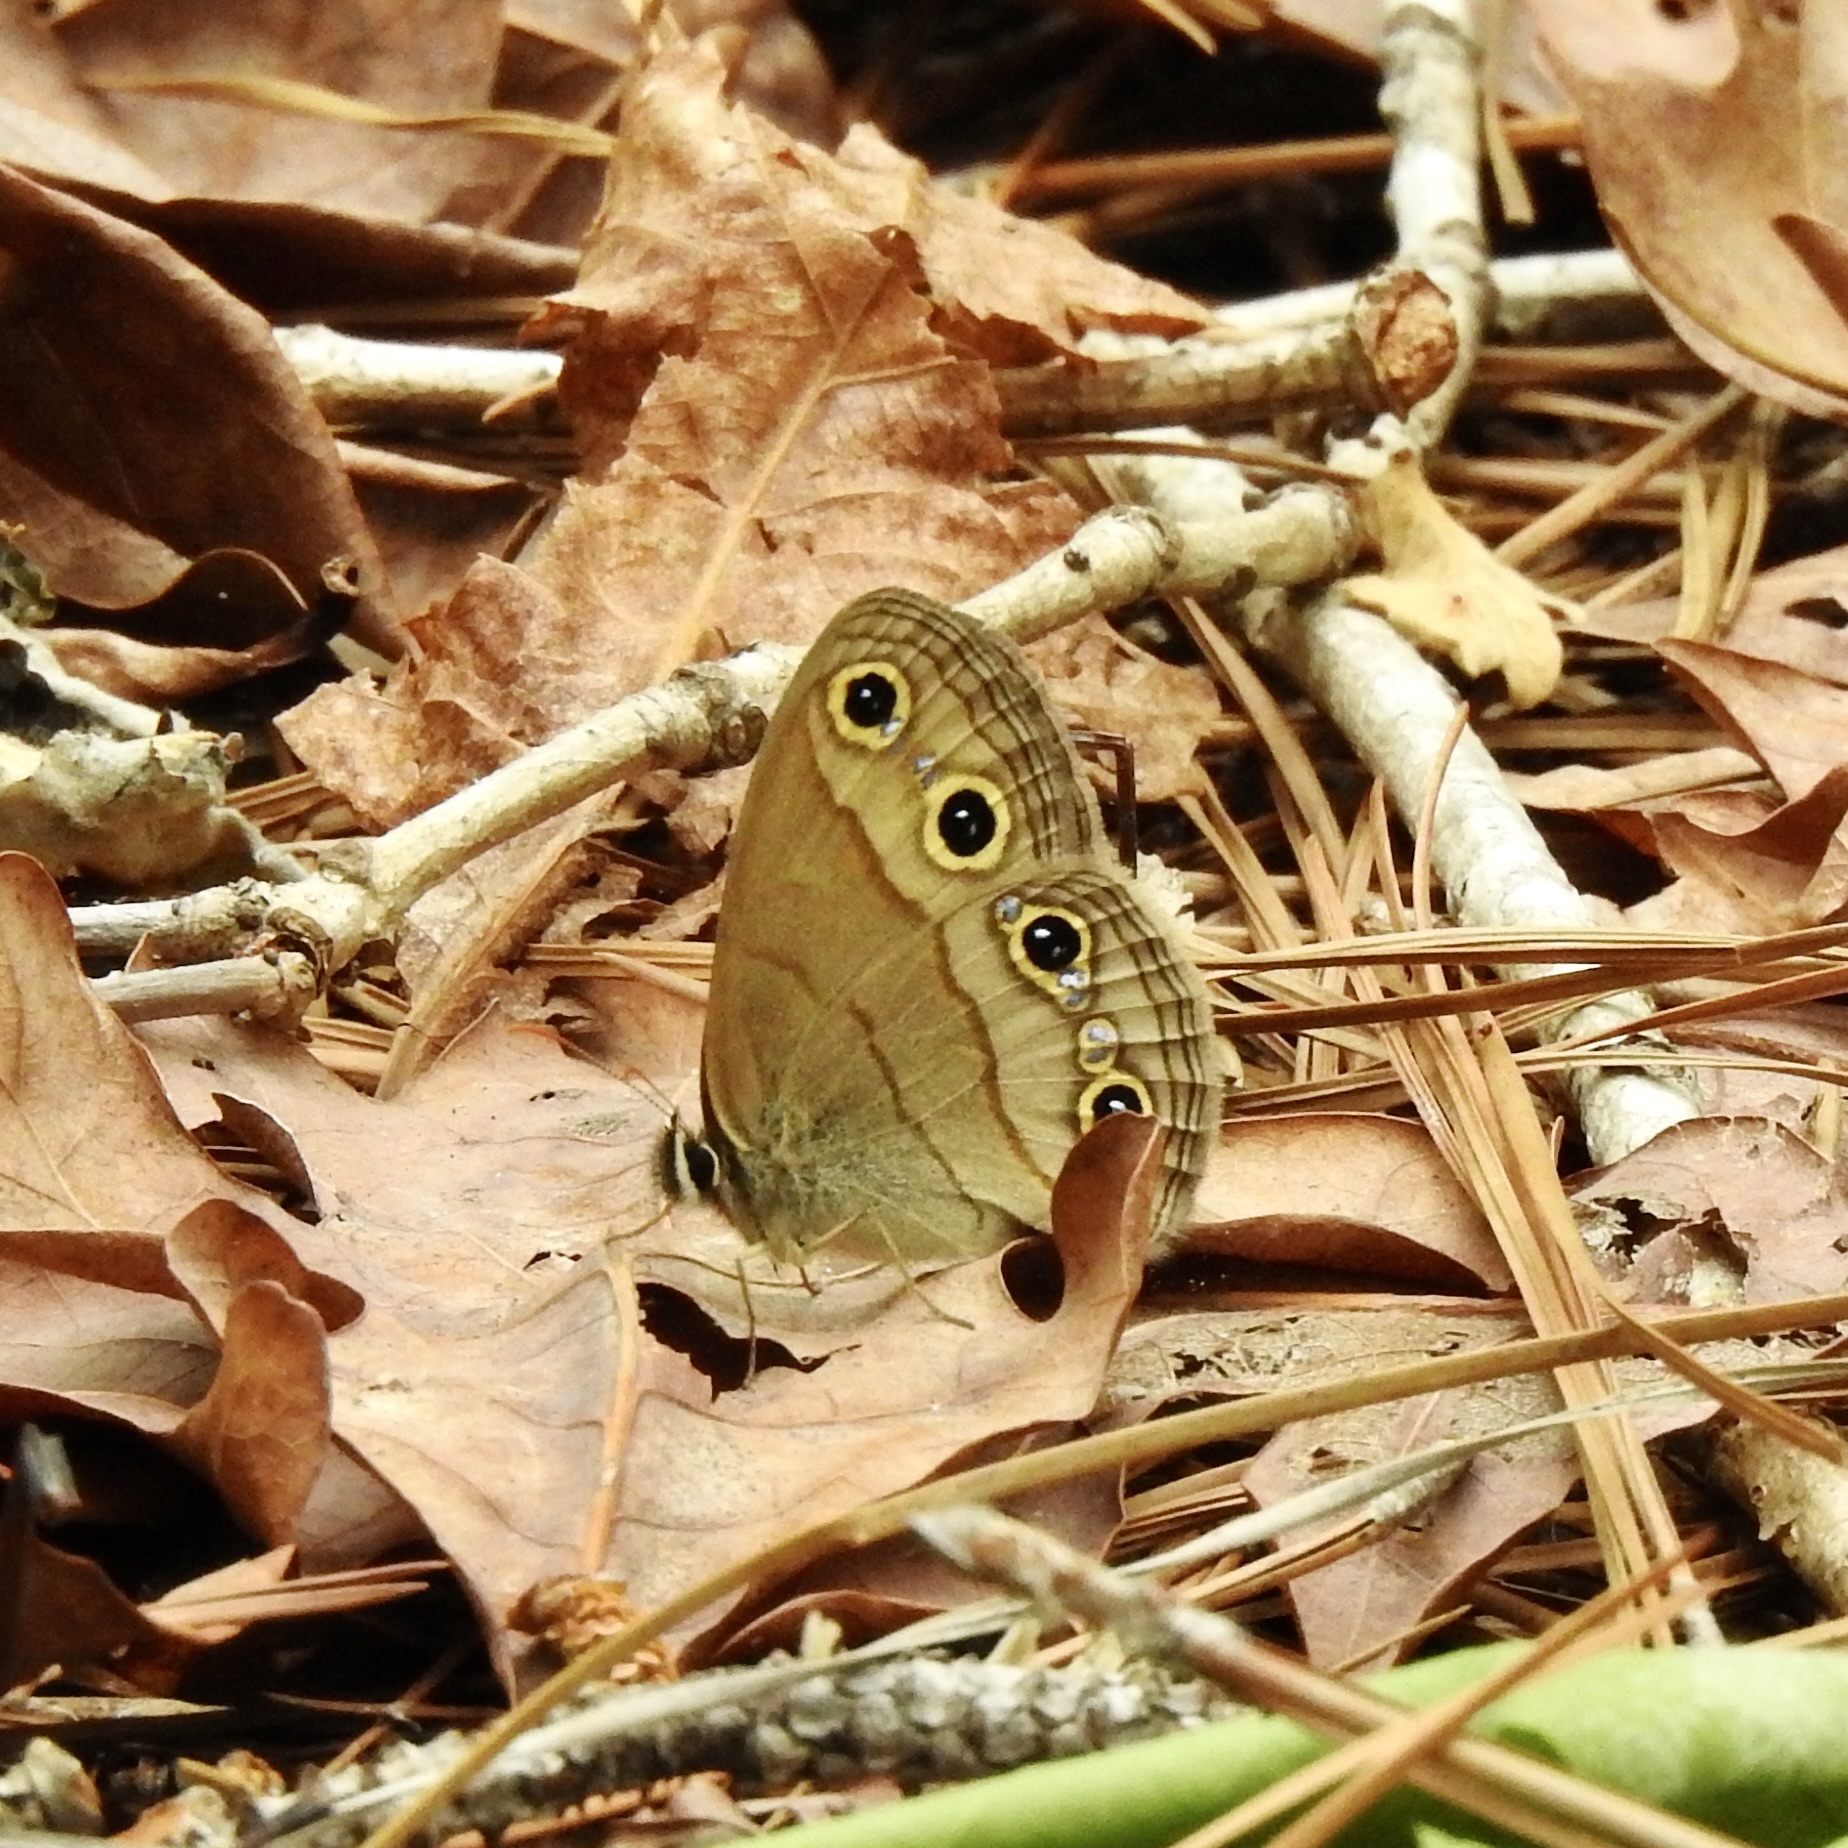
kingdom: Animalia
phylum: Arthropoda
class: Insecta
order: Lepidoptera
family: Nymphalidae
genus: Euptychia
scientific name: Euptychia cymela
